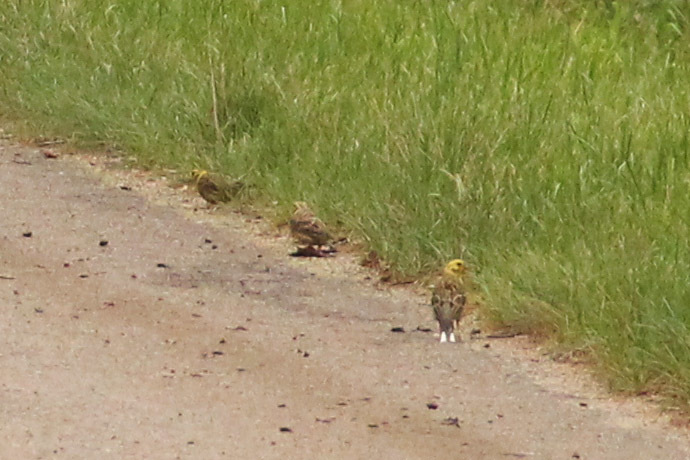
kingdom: Animalia
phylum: Chordata
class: Aves
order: Passeriformes
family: Emberizidae
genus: Emberiza
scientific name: Emberiza citrinella
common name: Yellowhammer
